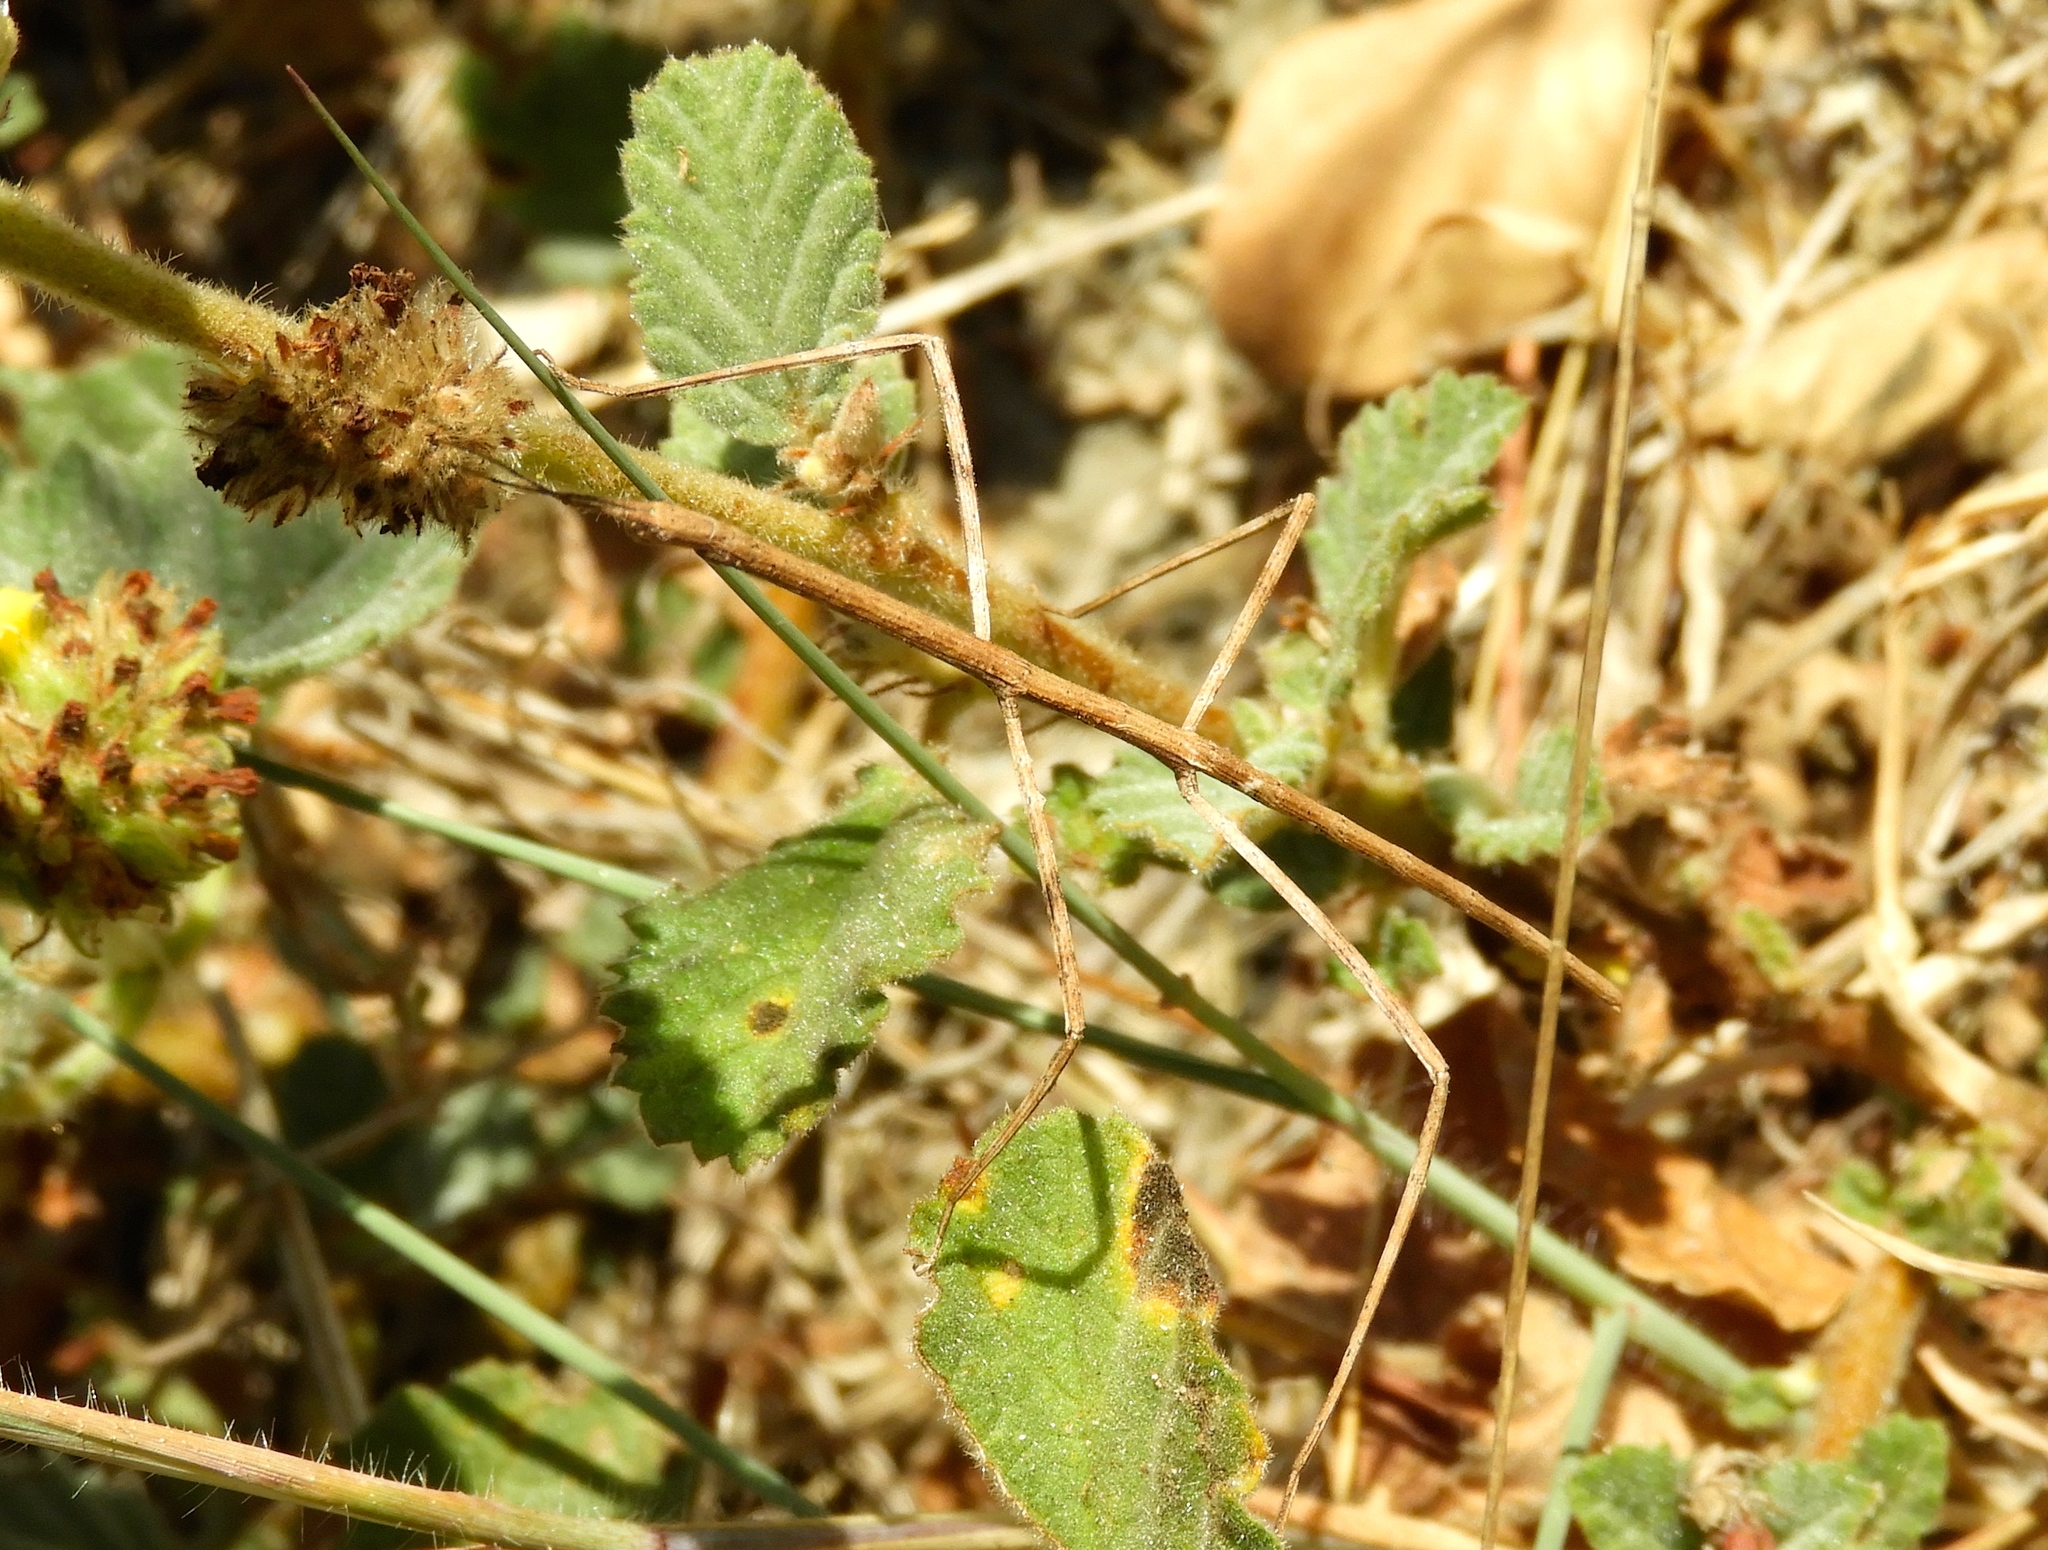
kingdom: Plantae
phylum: Tracheophyta
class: Magnoliopsida
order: Malvales
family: Malvaceae
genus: Waltheria
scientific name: Waltheria indica
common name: Leather-coat
